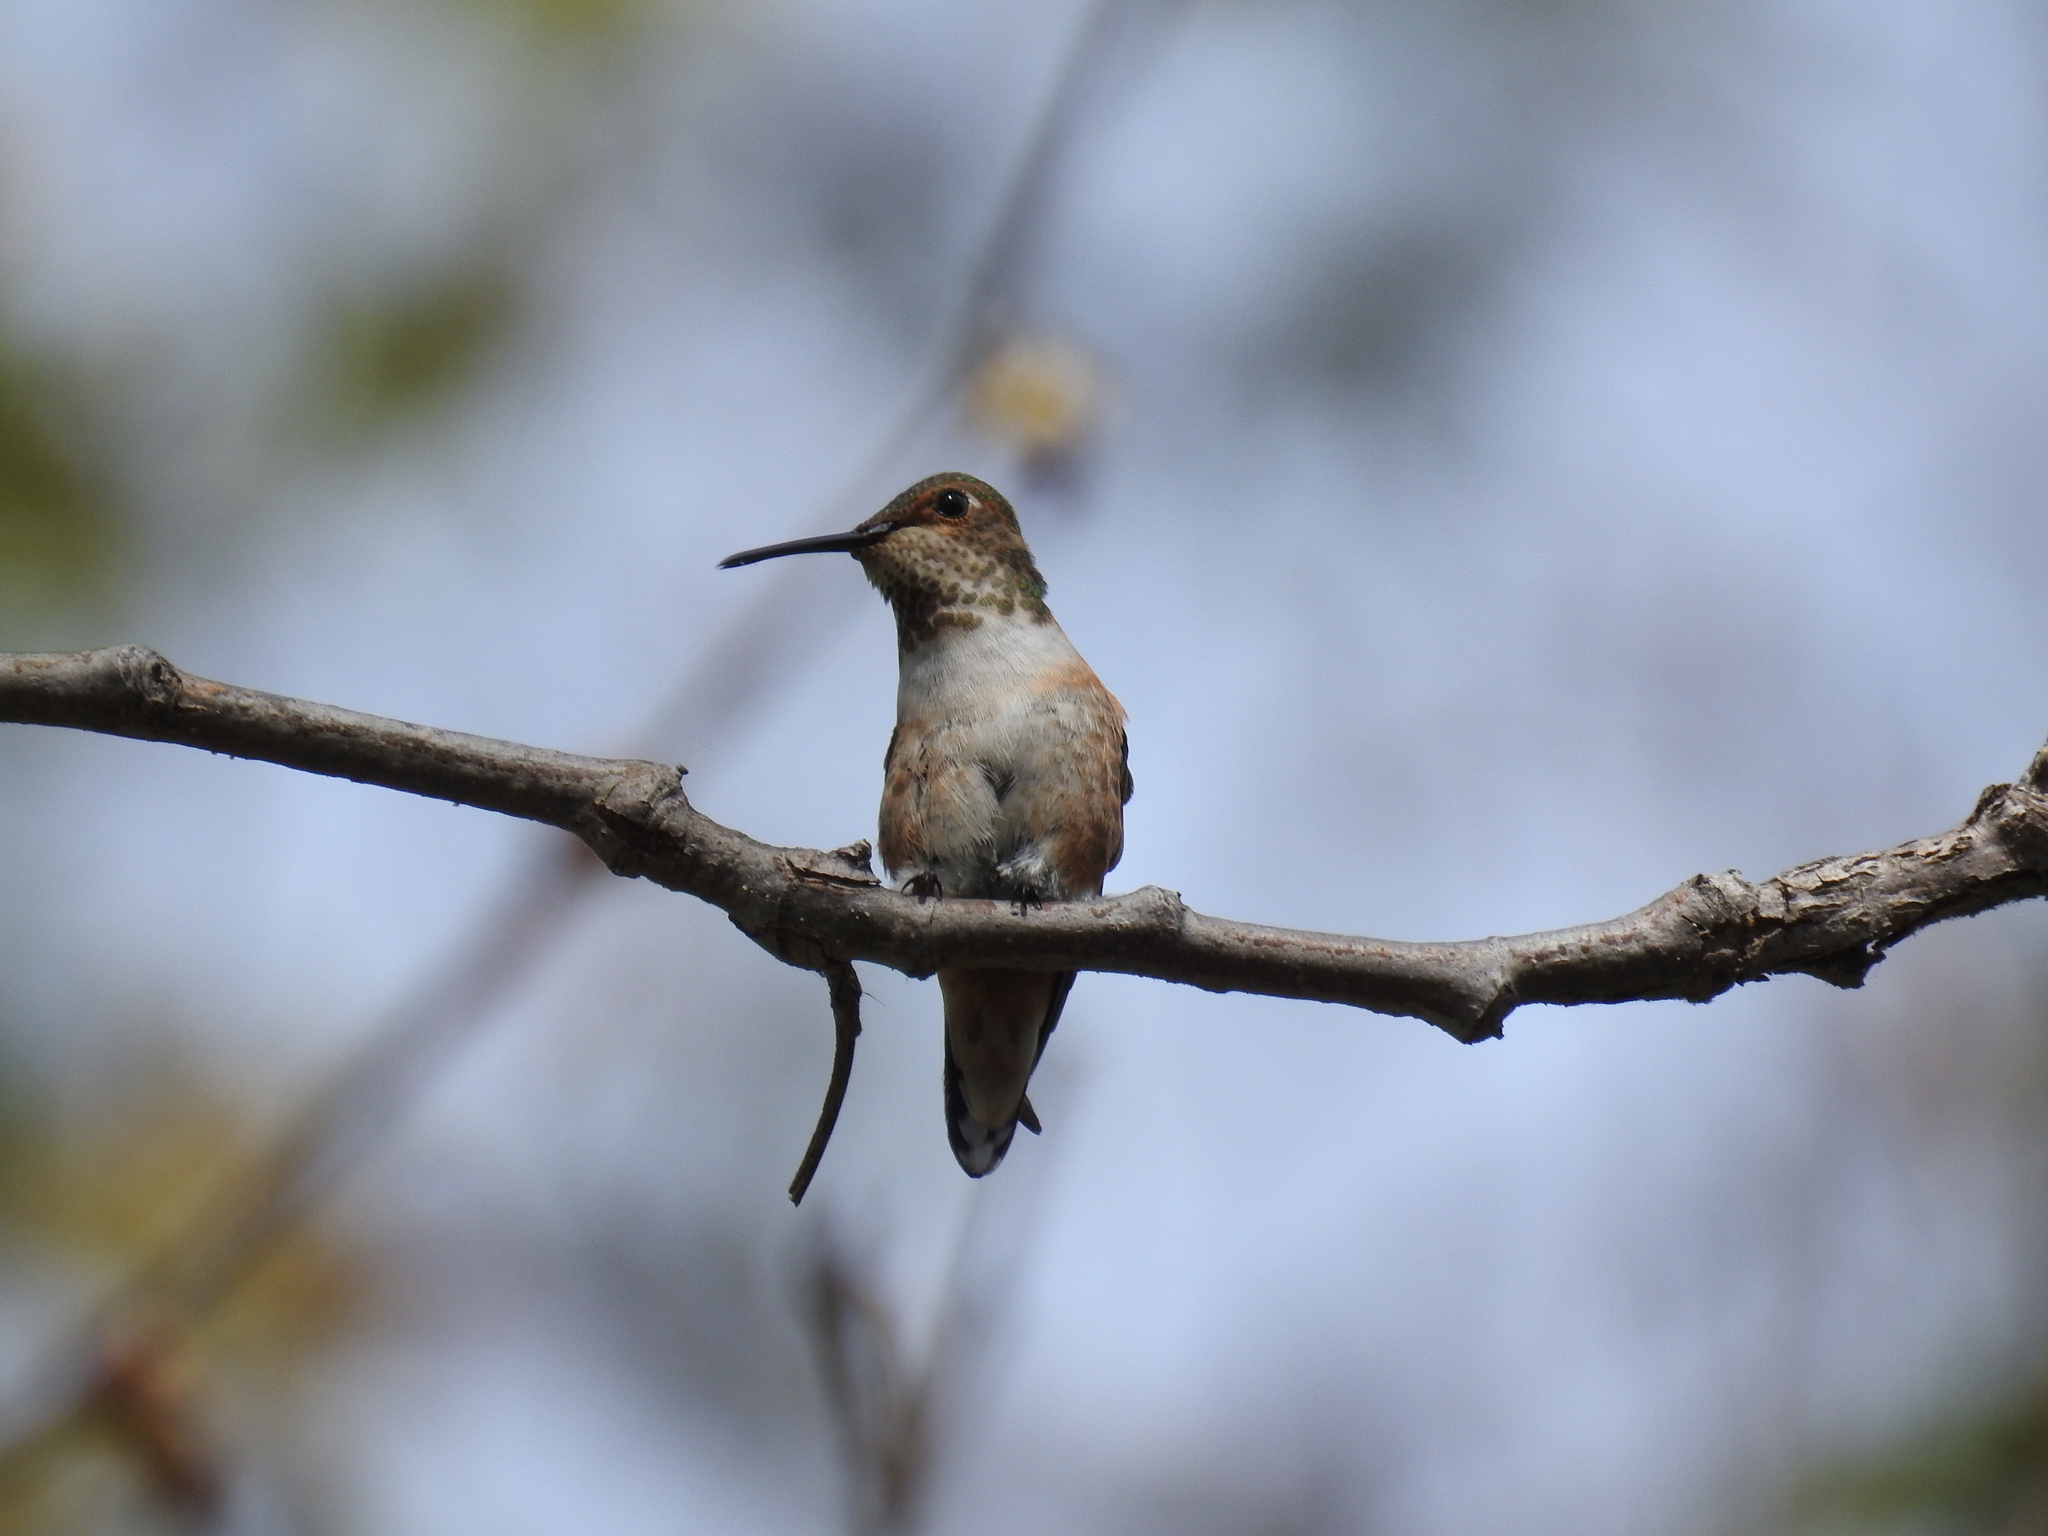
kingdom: Animalia
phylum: Chordata
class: Aves
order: Apodiformes
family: Trochilidae
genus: Selasphorus
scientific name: Selasphorus sasin
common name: Allen's hummingbird
